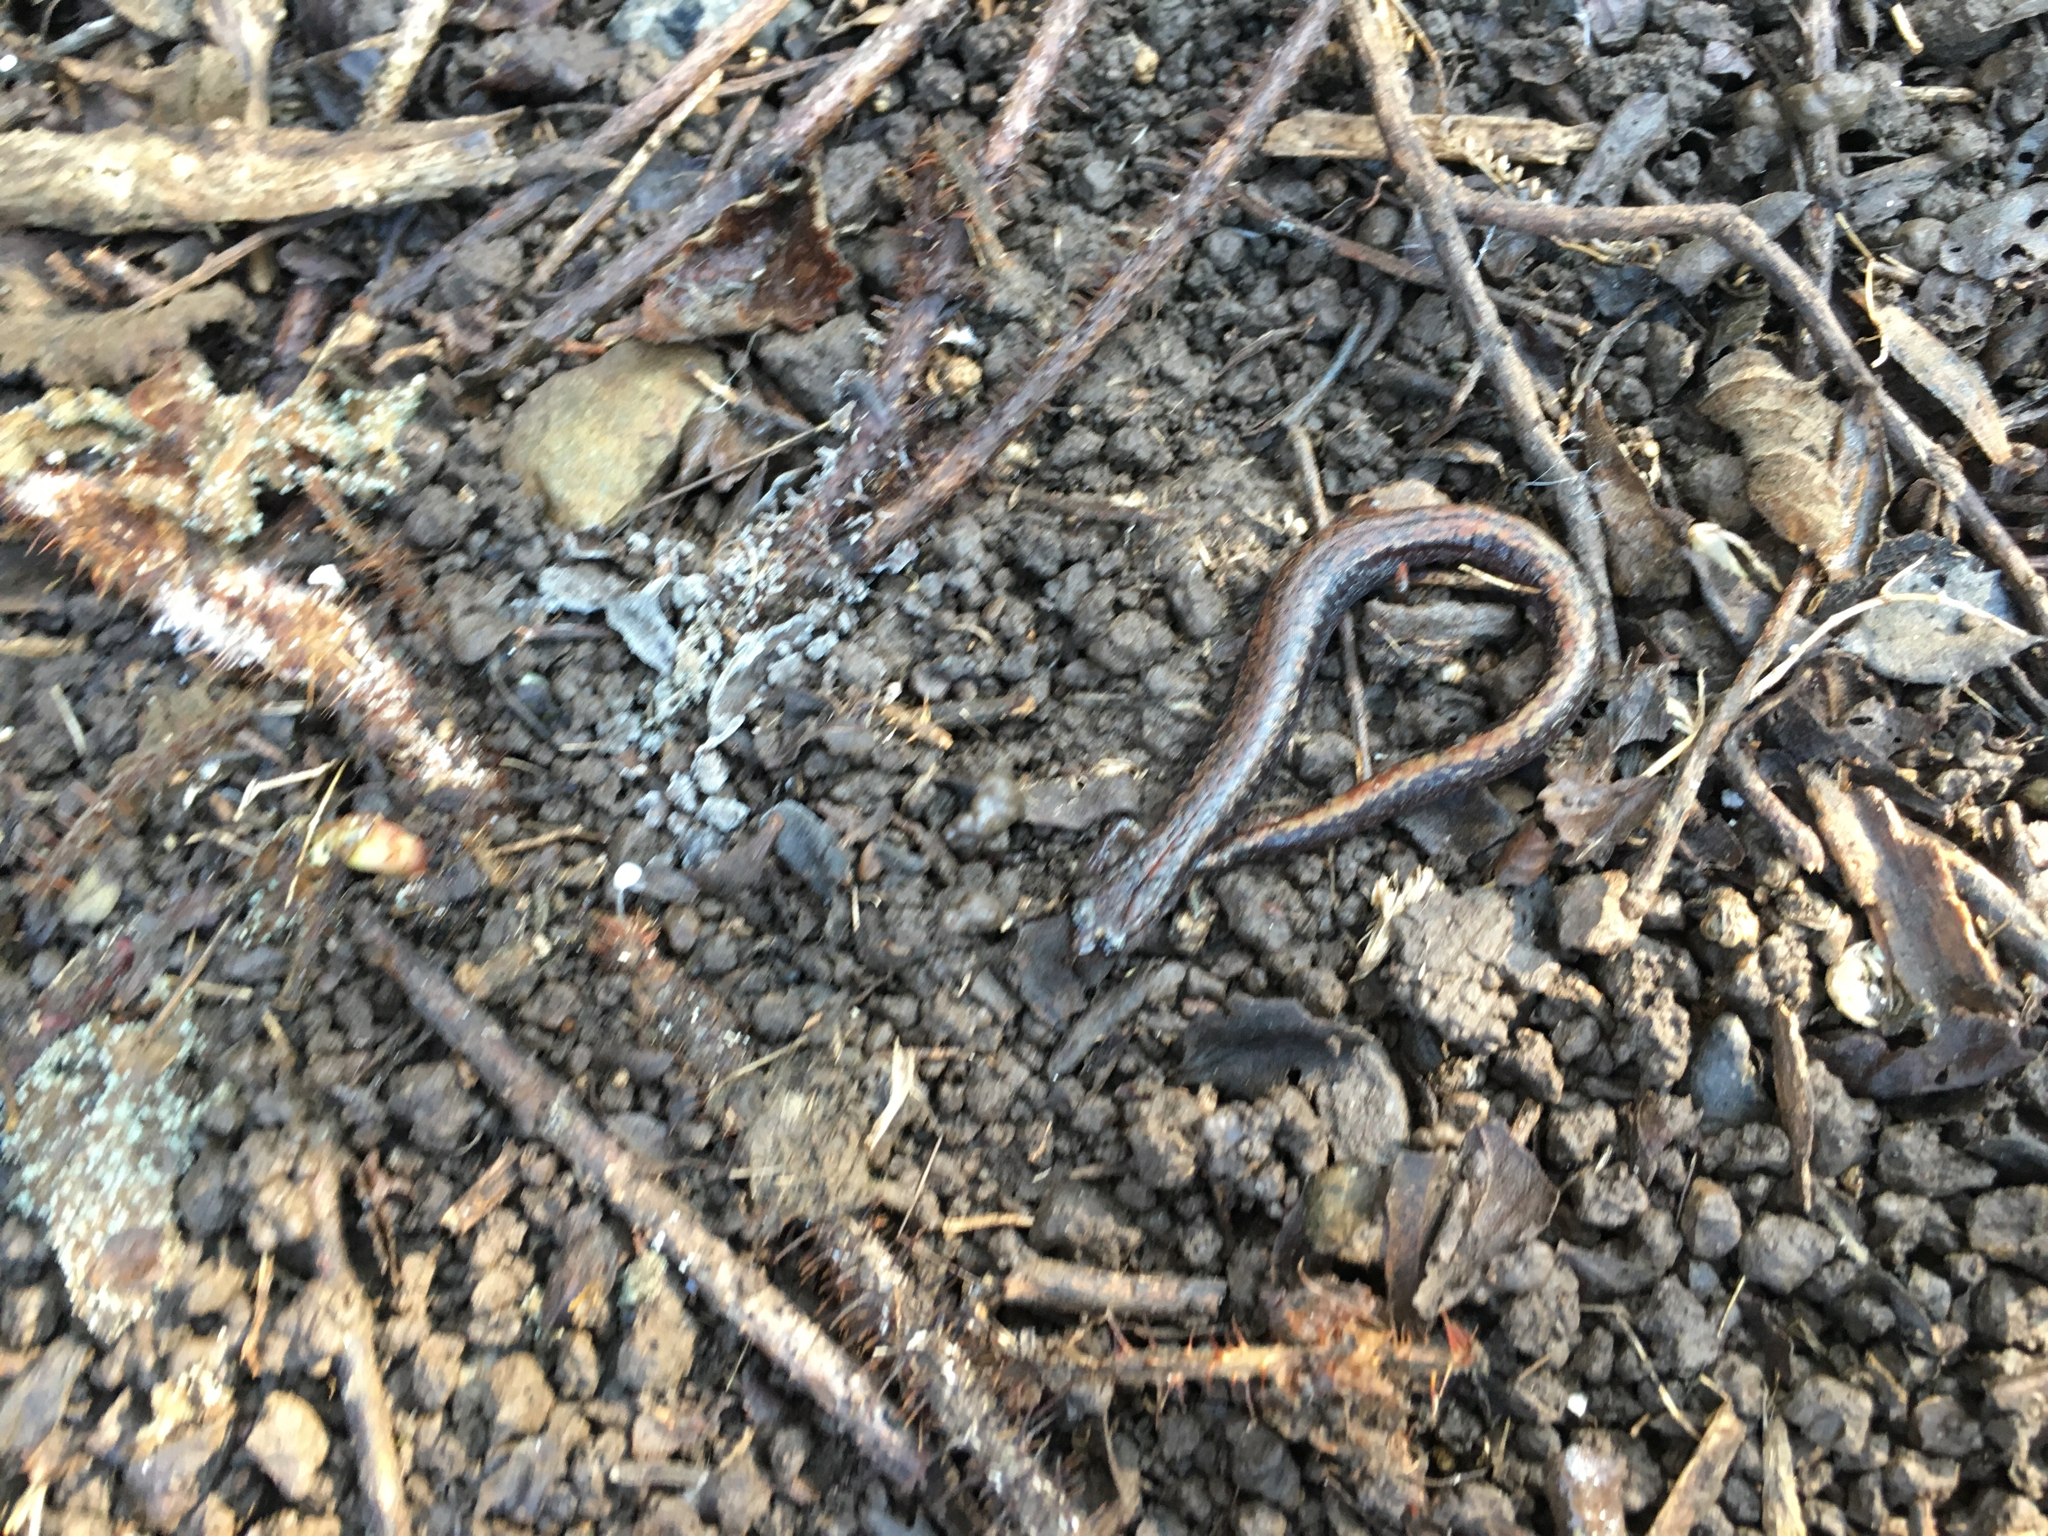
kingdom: Animalia
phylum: Chordata
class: Amphibia
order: Caudata
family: Plethodontidae
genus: Batrachoseps
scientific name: Batrachoseps attenuatus
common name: California slender salamander
